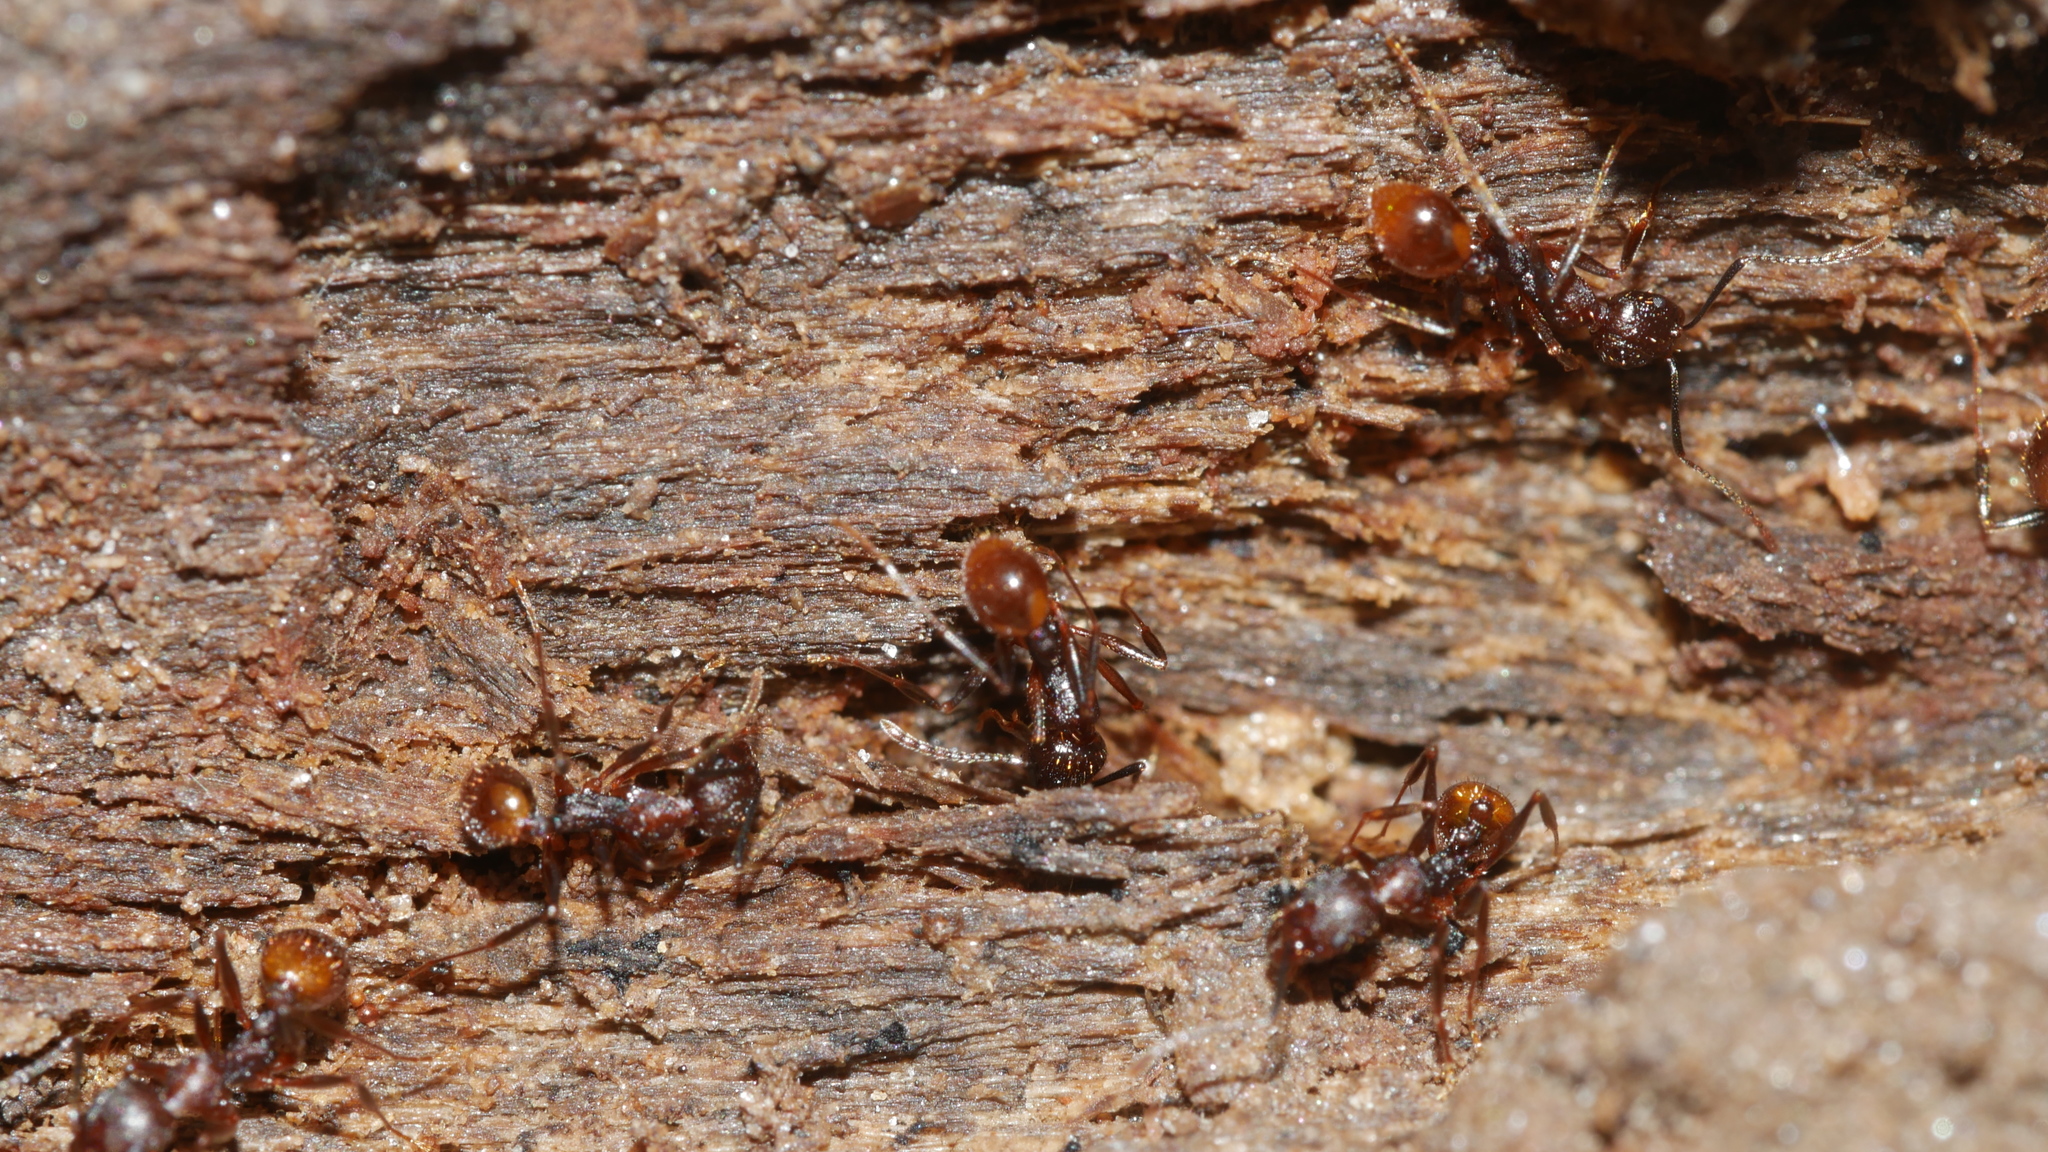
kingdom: Animalia
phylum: Arthropoda
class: Insecta
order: Hymenoptera
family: Formicidae
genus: Aphaenogaster
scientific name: Aphaenogaster lamellidens
